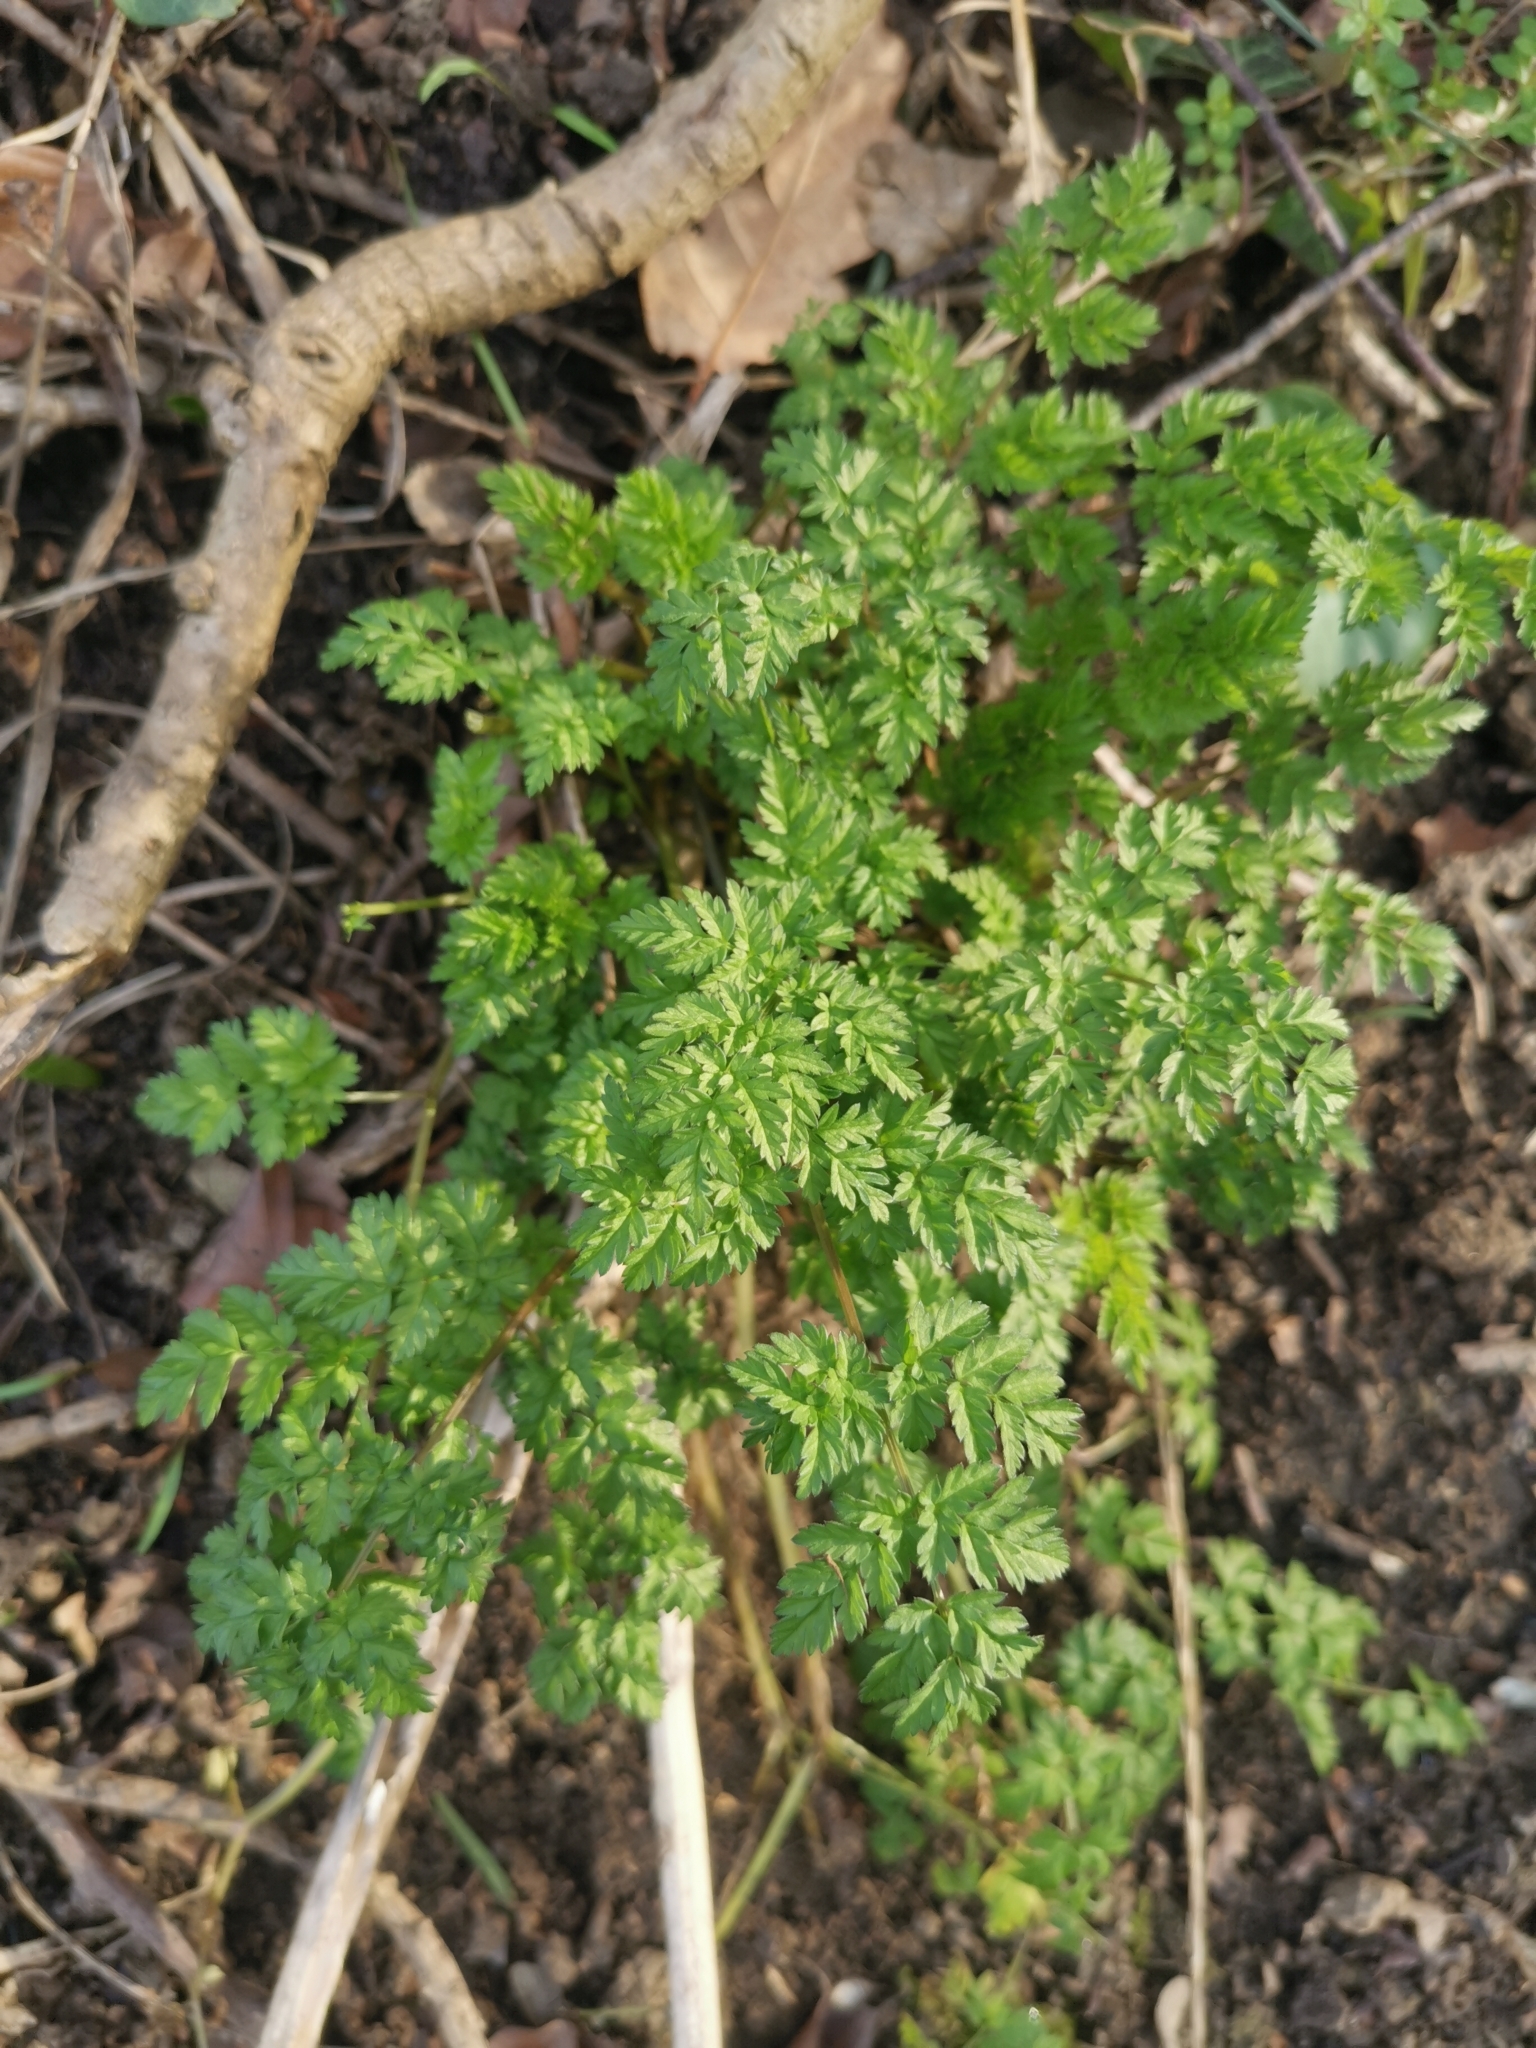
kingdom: Plantae
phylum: Tracheophyta
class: Magnoliopsida
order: Apiales
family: Apiaceae
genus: Anthriscus
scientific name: Anthriscus sylvestris
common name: Cow parsley
